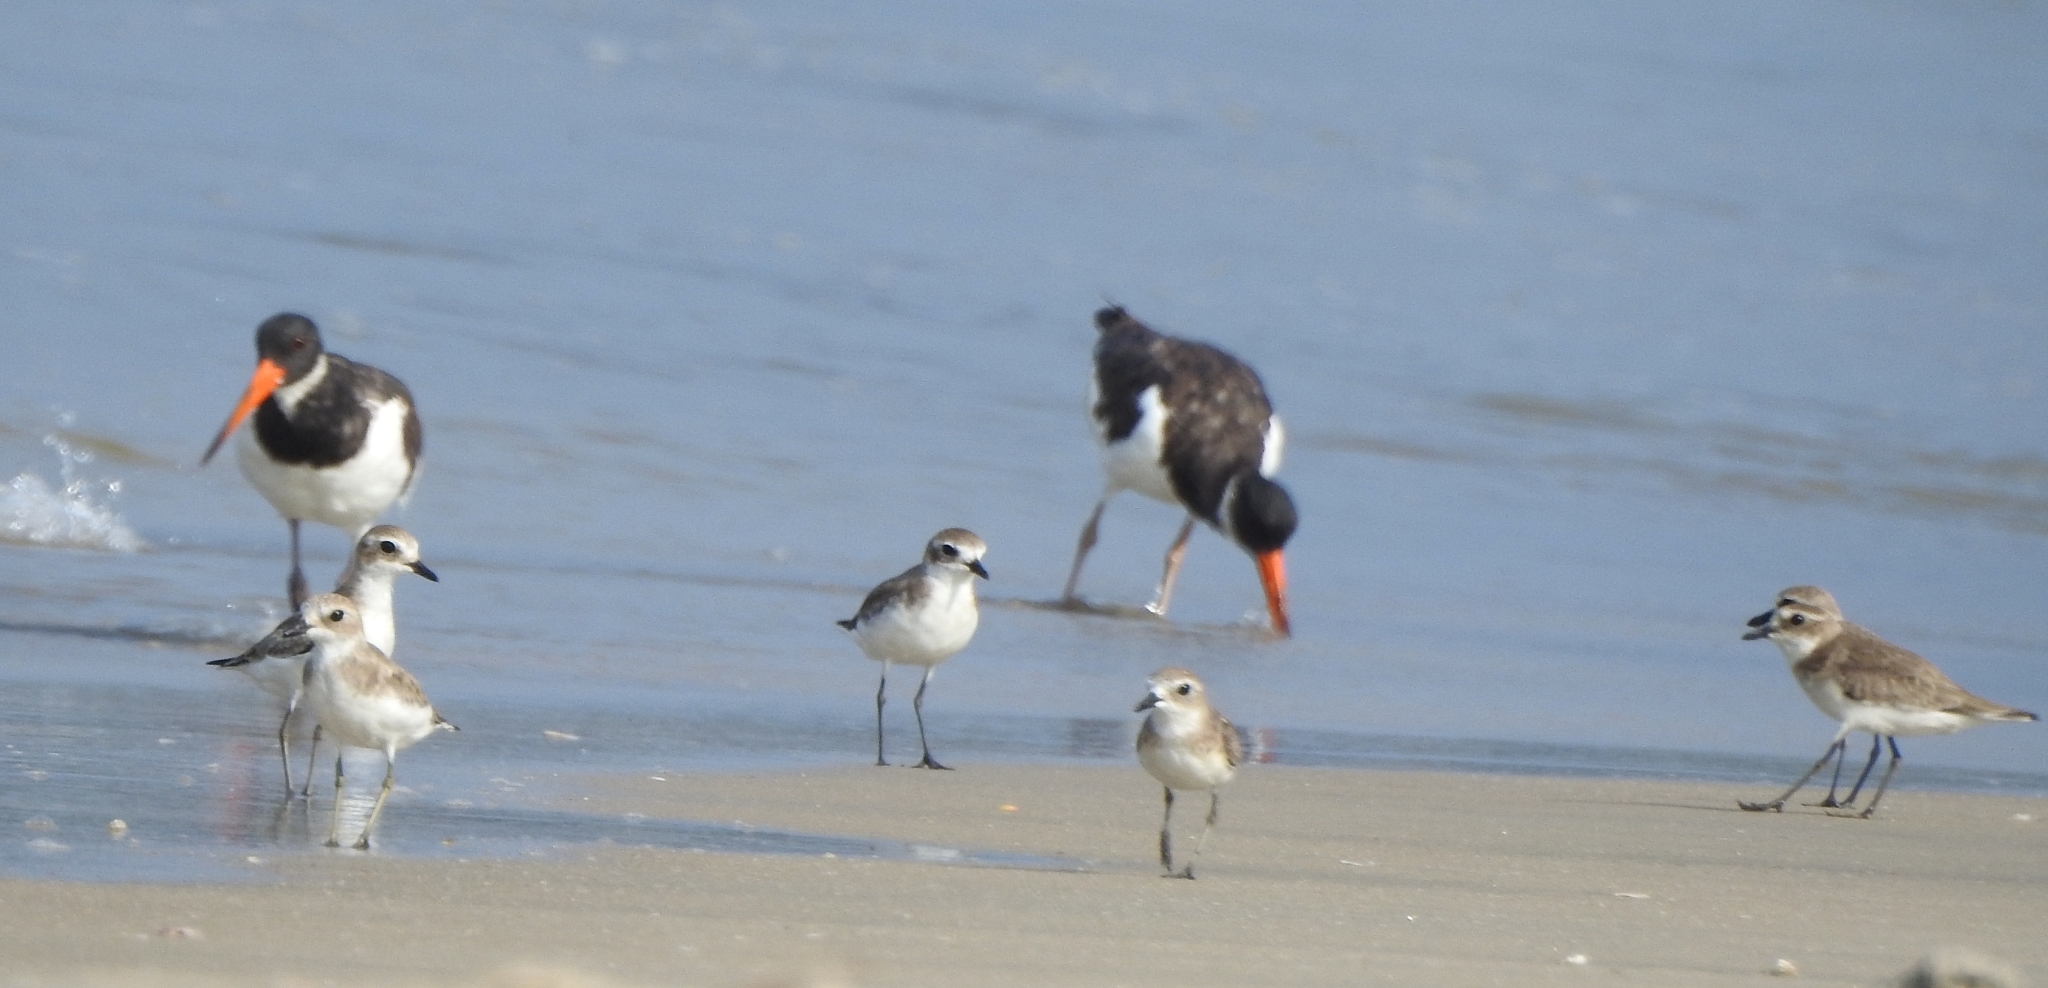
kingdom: Animalia
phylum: Chordata
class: Aves
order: Charadriiformes
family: Charadriidae
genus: Anarhynchus
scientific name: Anarhynchus
